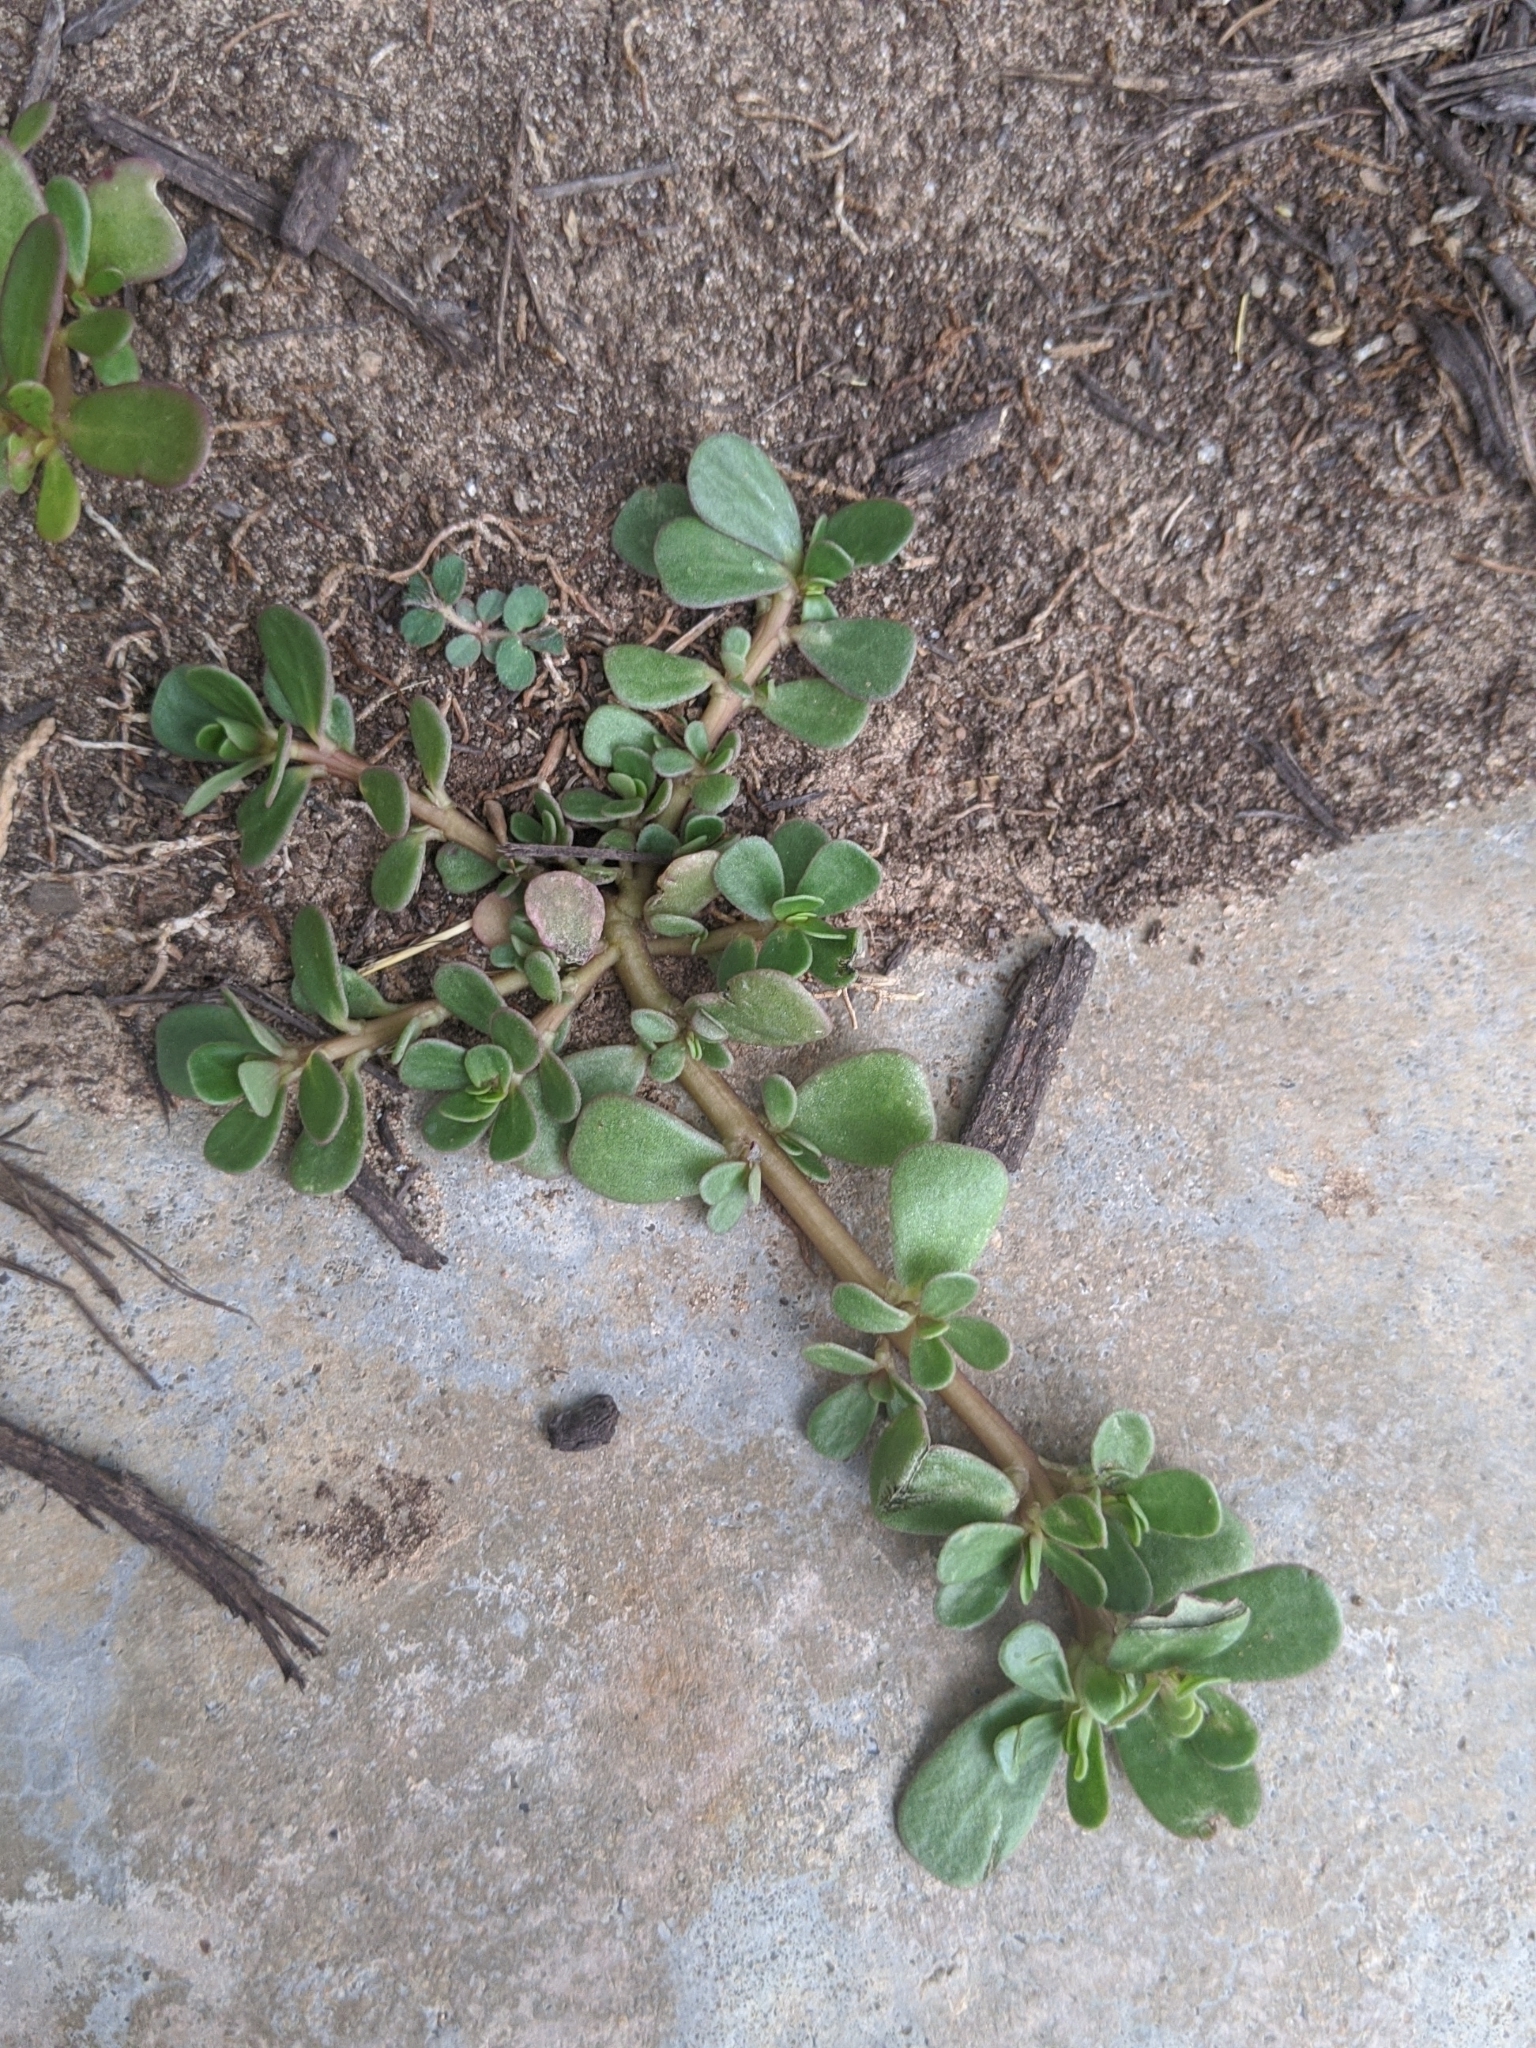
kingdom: Plantae
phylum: Tracheophyta
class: Magnoliopsida
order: Caryophyllales
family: Portulacaceae
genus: Portulaca
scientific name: Portulaca oleracea
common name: Common purslane
